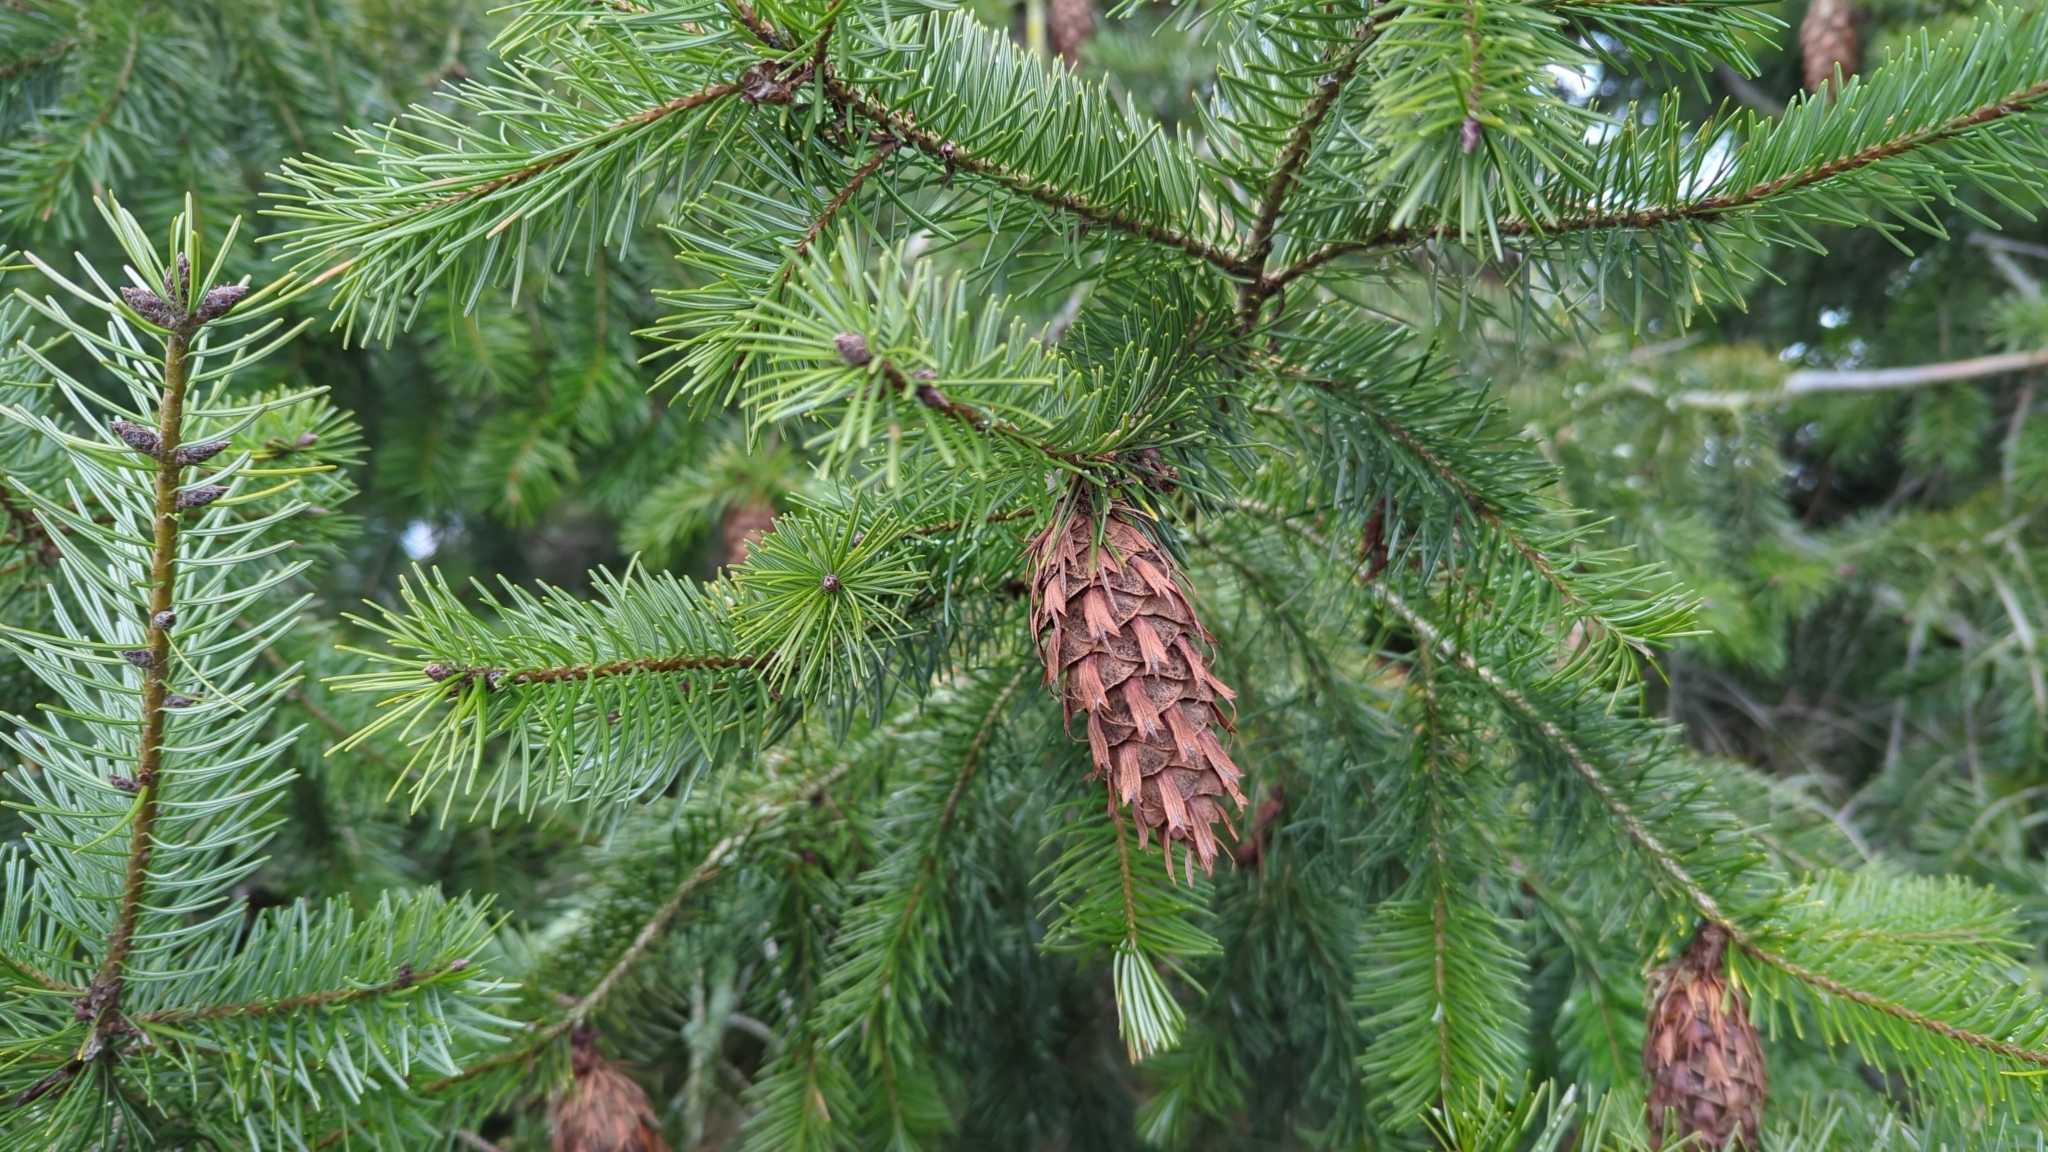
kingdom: Plantae
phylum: Tracheophyta
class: Pinopsida
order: Pinales
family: Pinaceae
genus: Pseudotsuga
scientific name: Pseudotsuga menziesii
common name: Douglas fir
